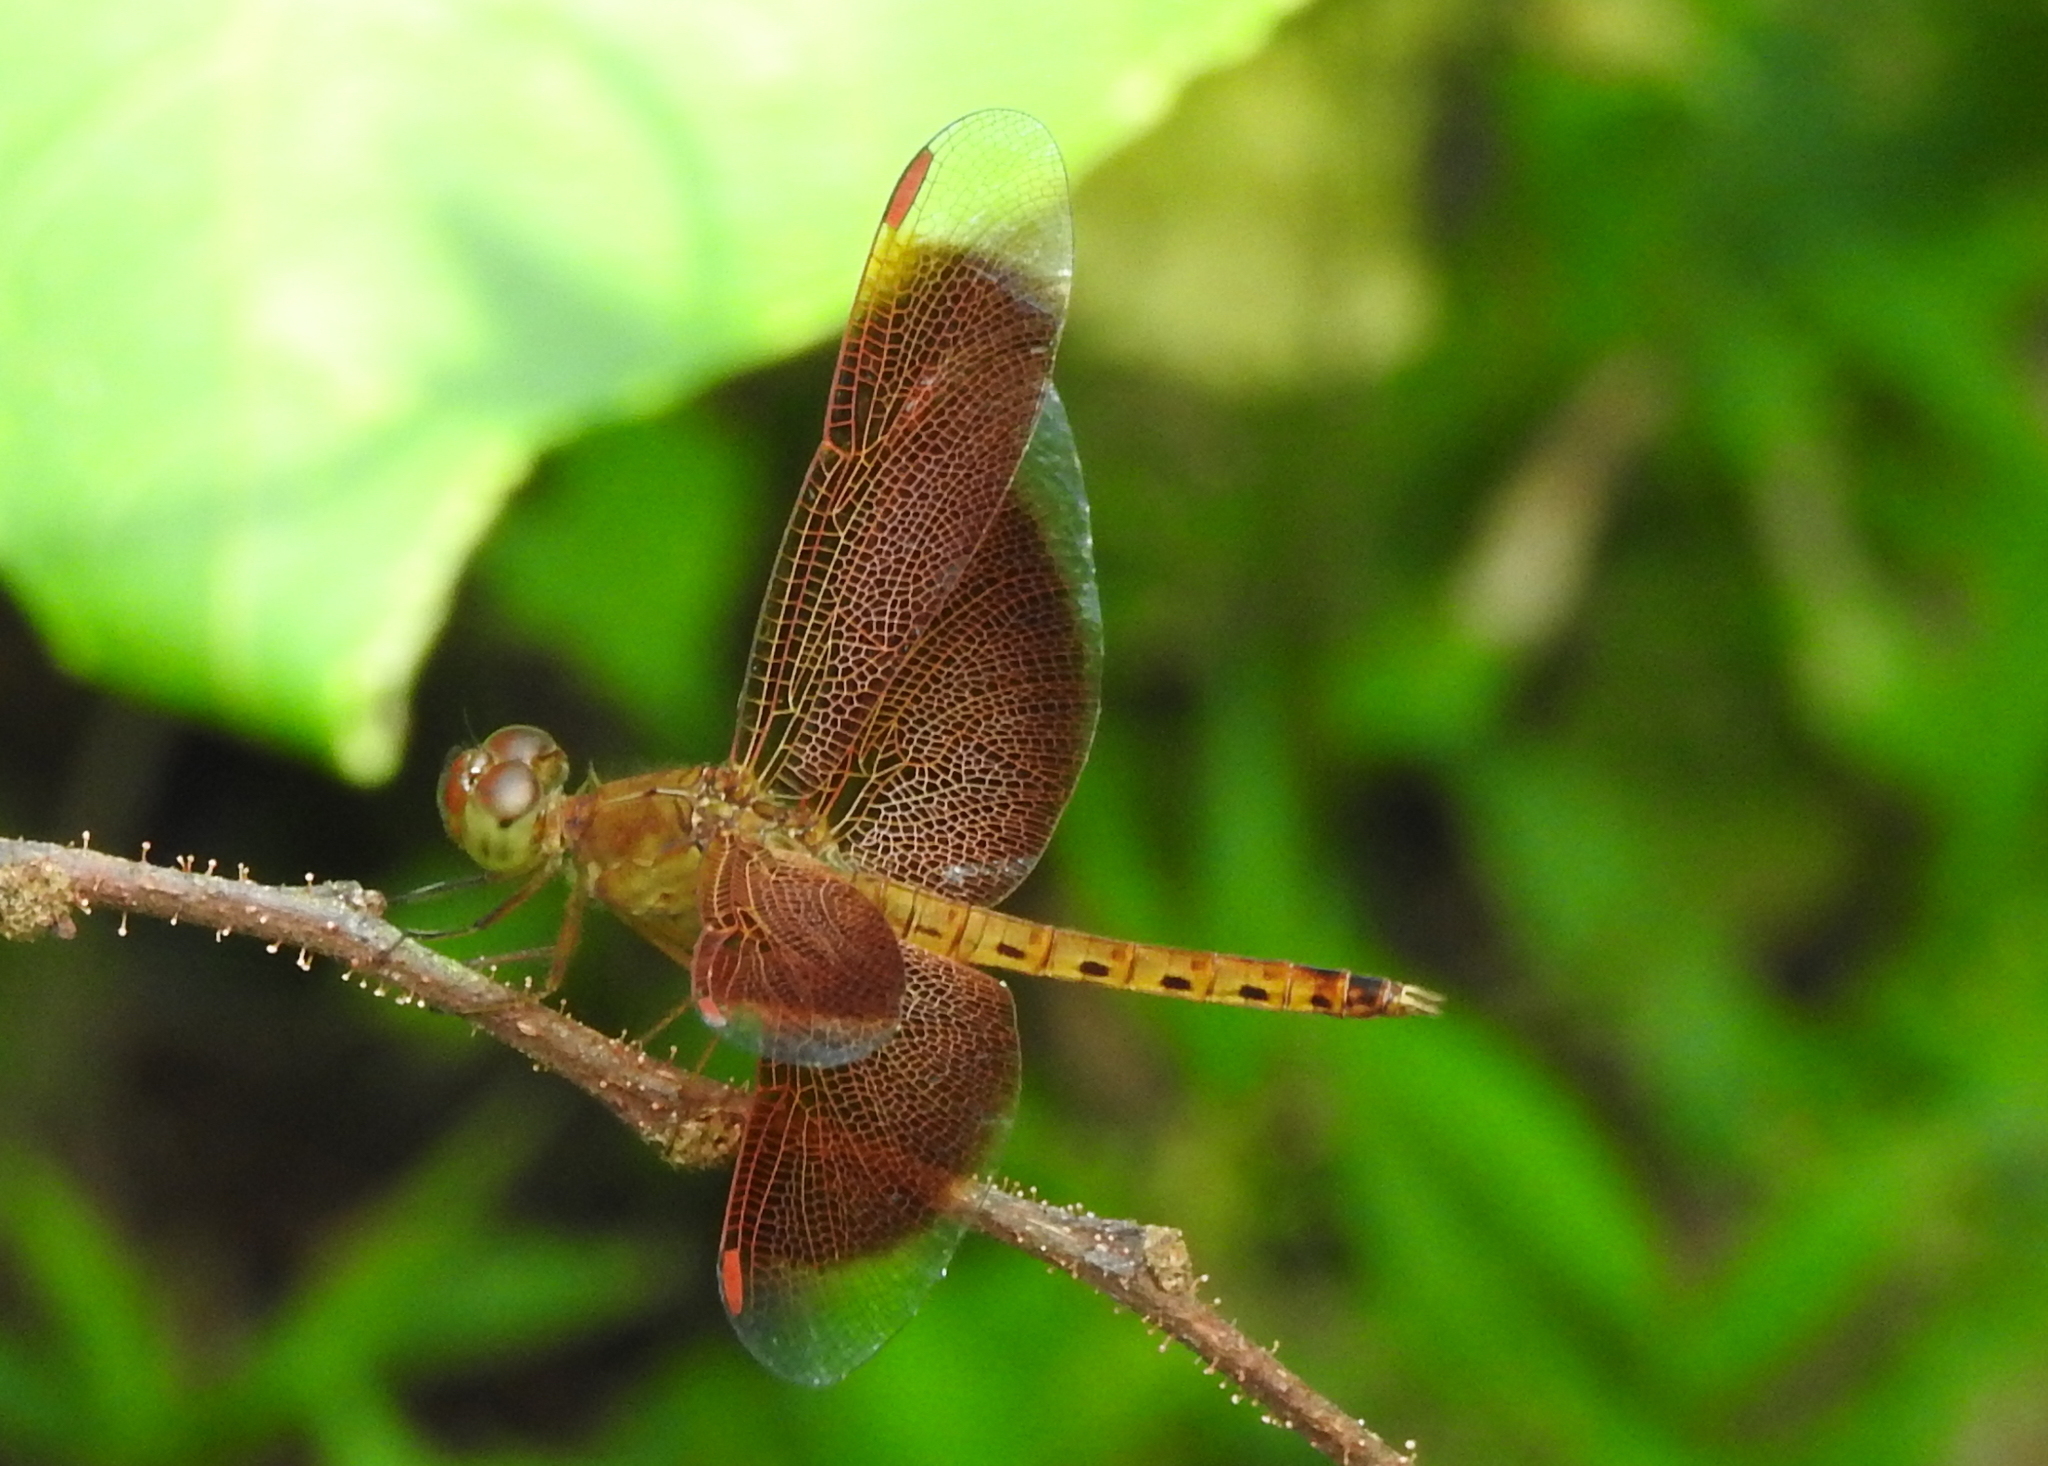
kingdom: Animalia
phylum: Arthropoda
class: Insecta
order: Odonata
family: Libellulidae
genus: Neurothemis
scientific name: Neurothemis fluctuans
